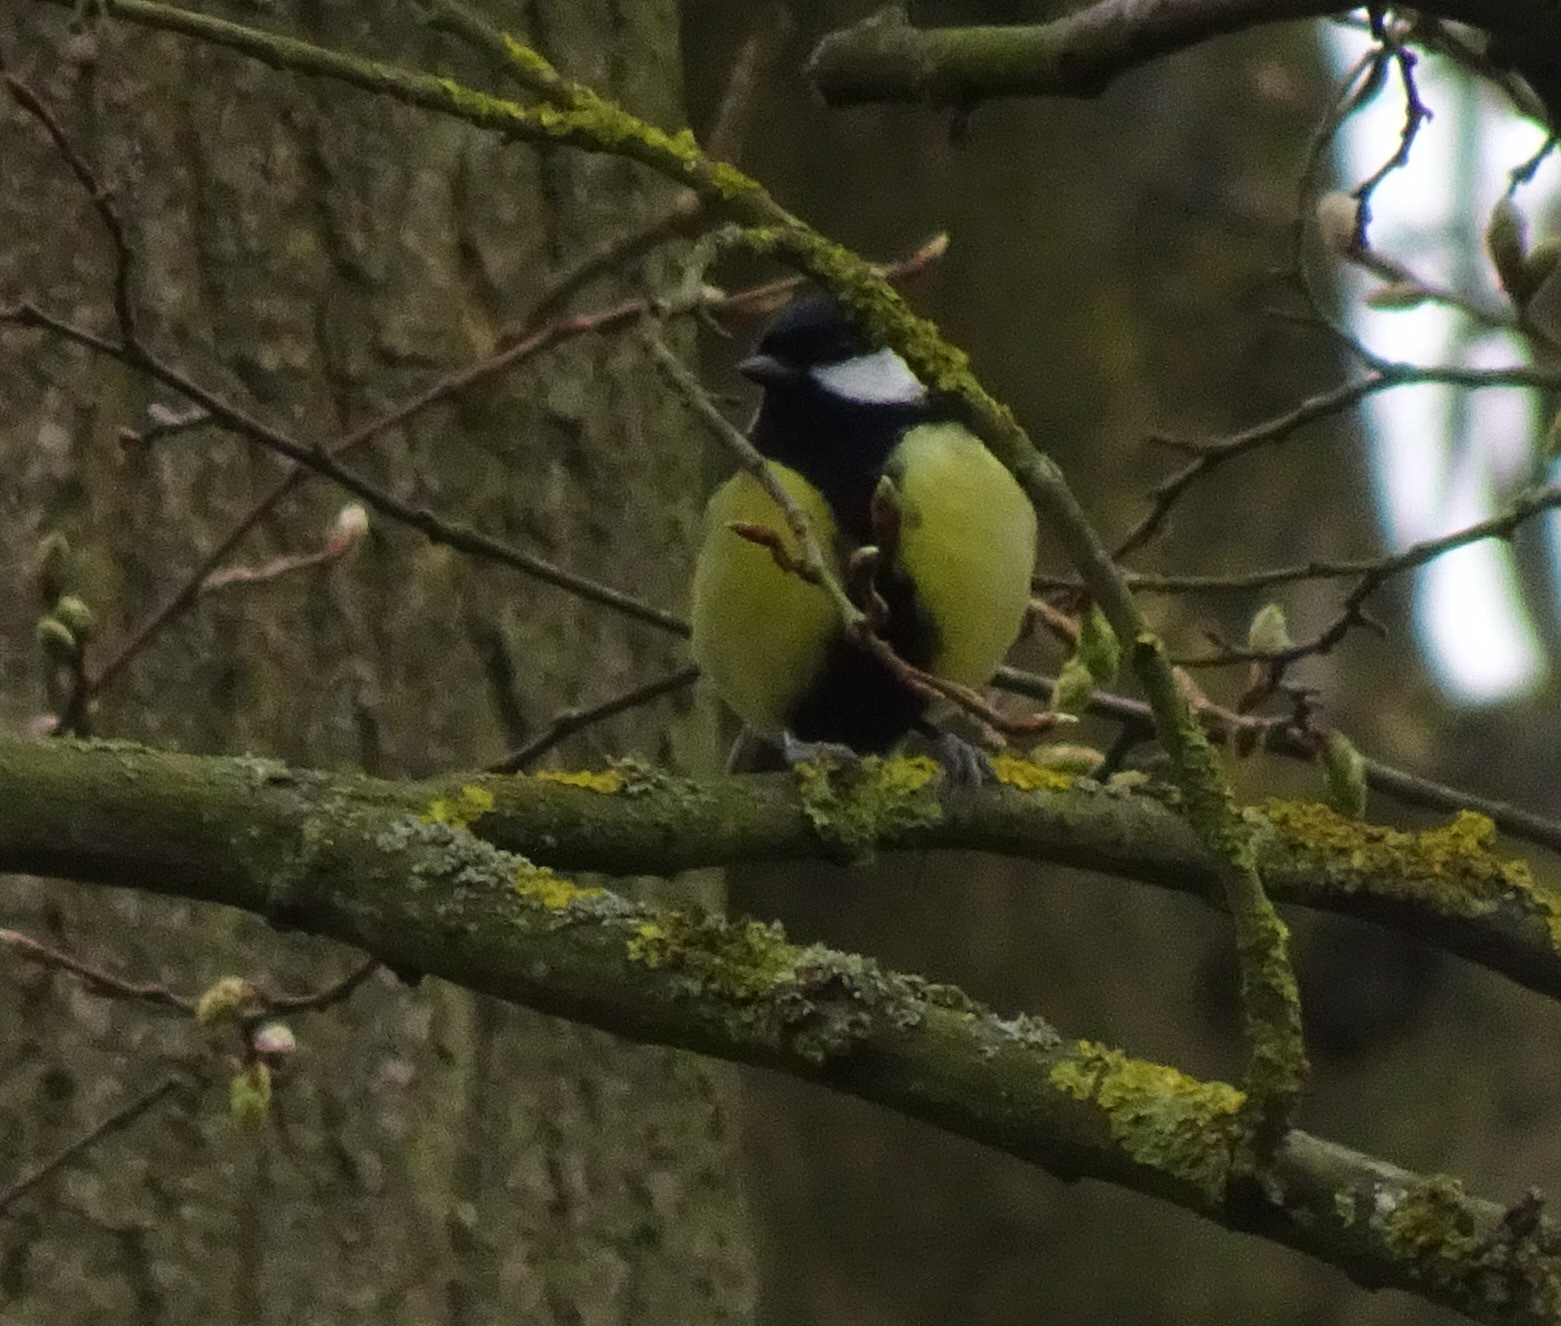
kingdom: Animalia
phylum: Chordata
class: Aves
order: Passeriformes
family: Paridae
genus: Parus
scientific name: Parus major
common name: Great tit
